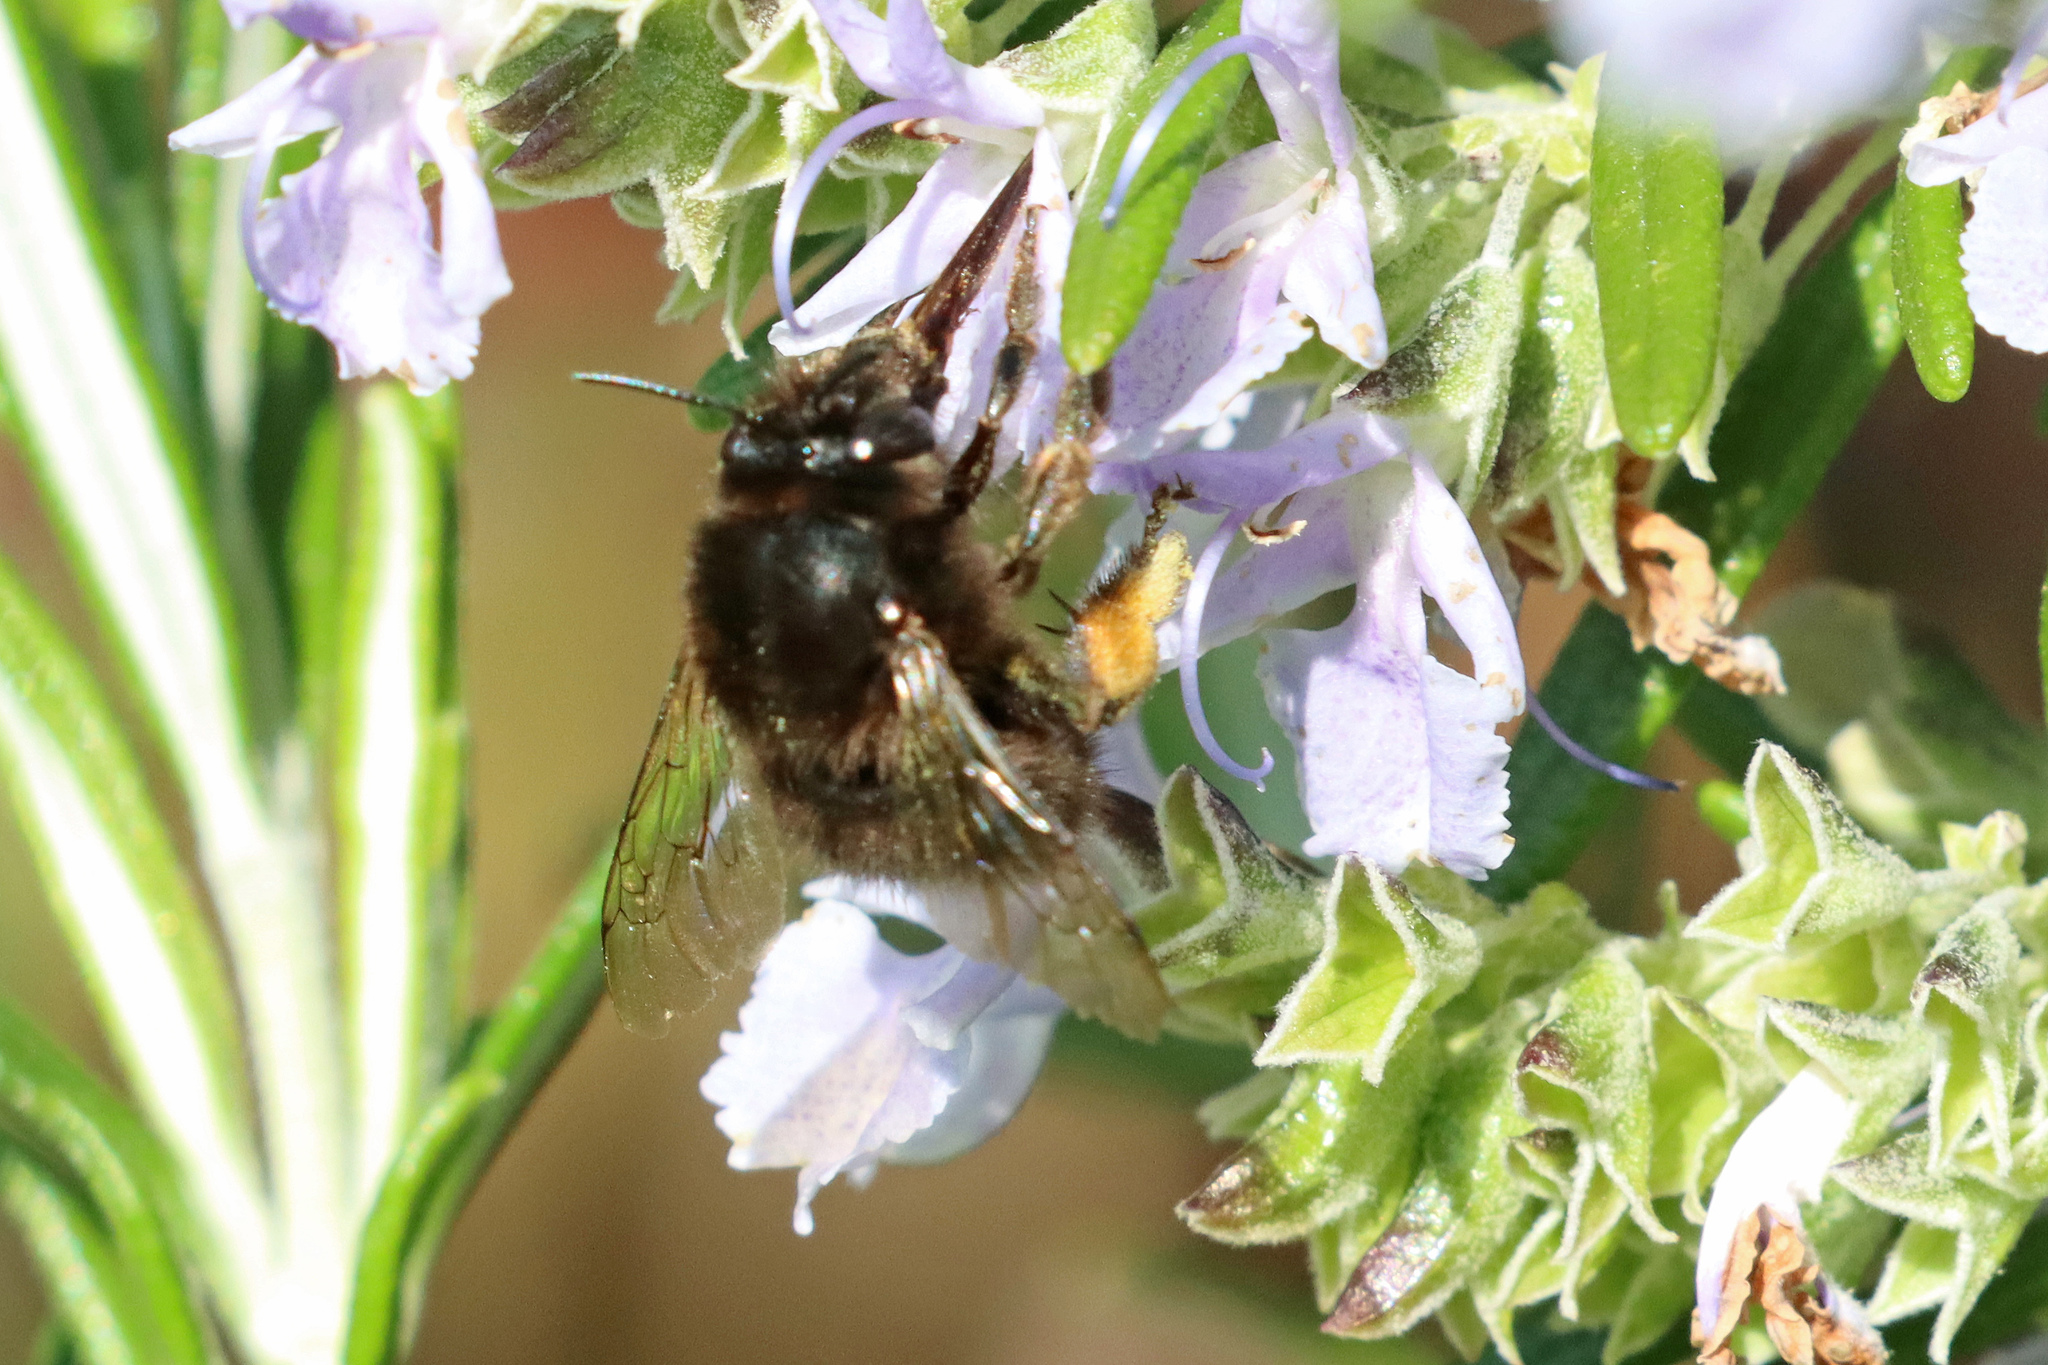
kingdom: Animalia
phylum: Arthropoda
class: Insecta
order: Hymenoptera
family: Apidae
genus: Anthophora
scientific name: Anthophora plumipes
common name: Hairy-footed flower bee
